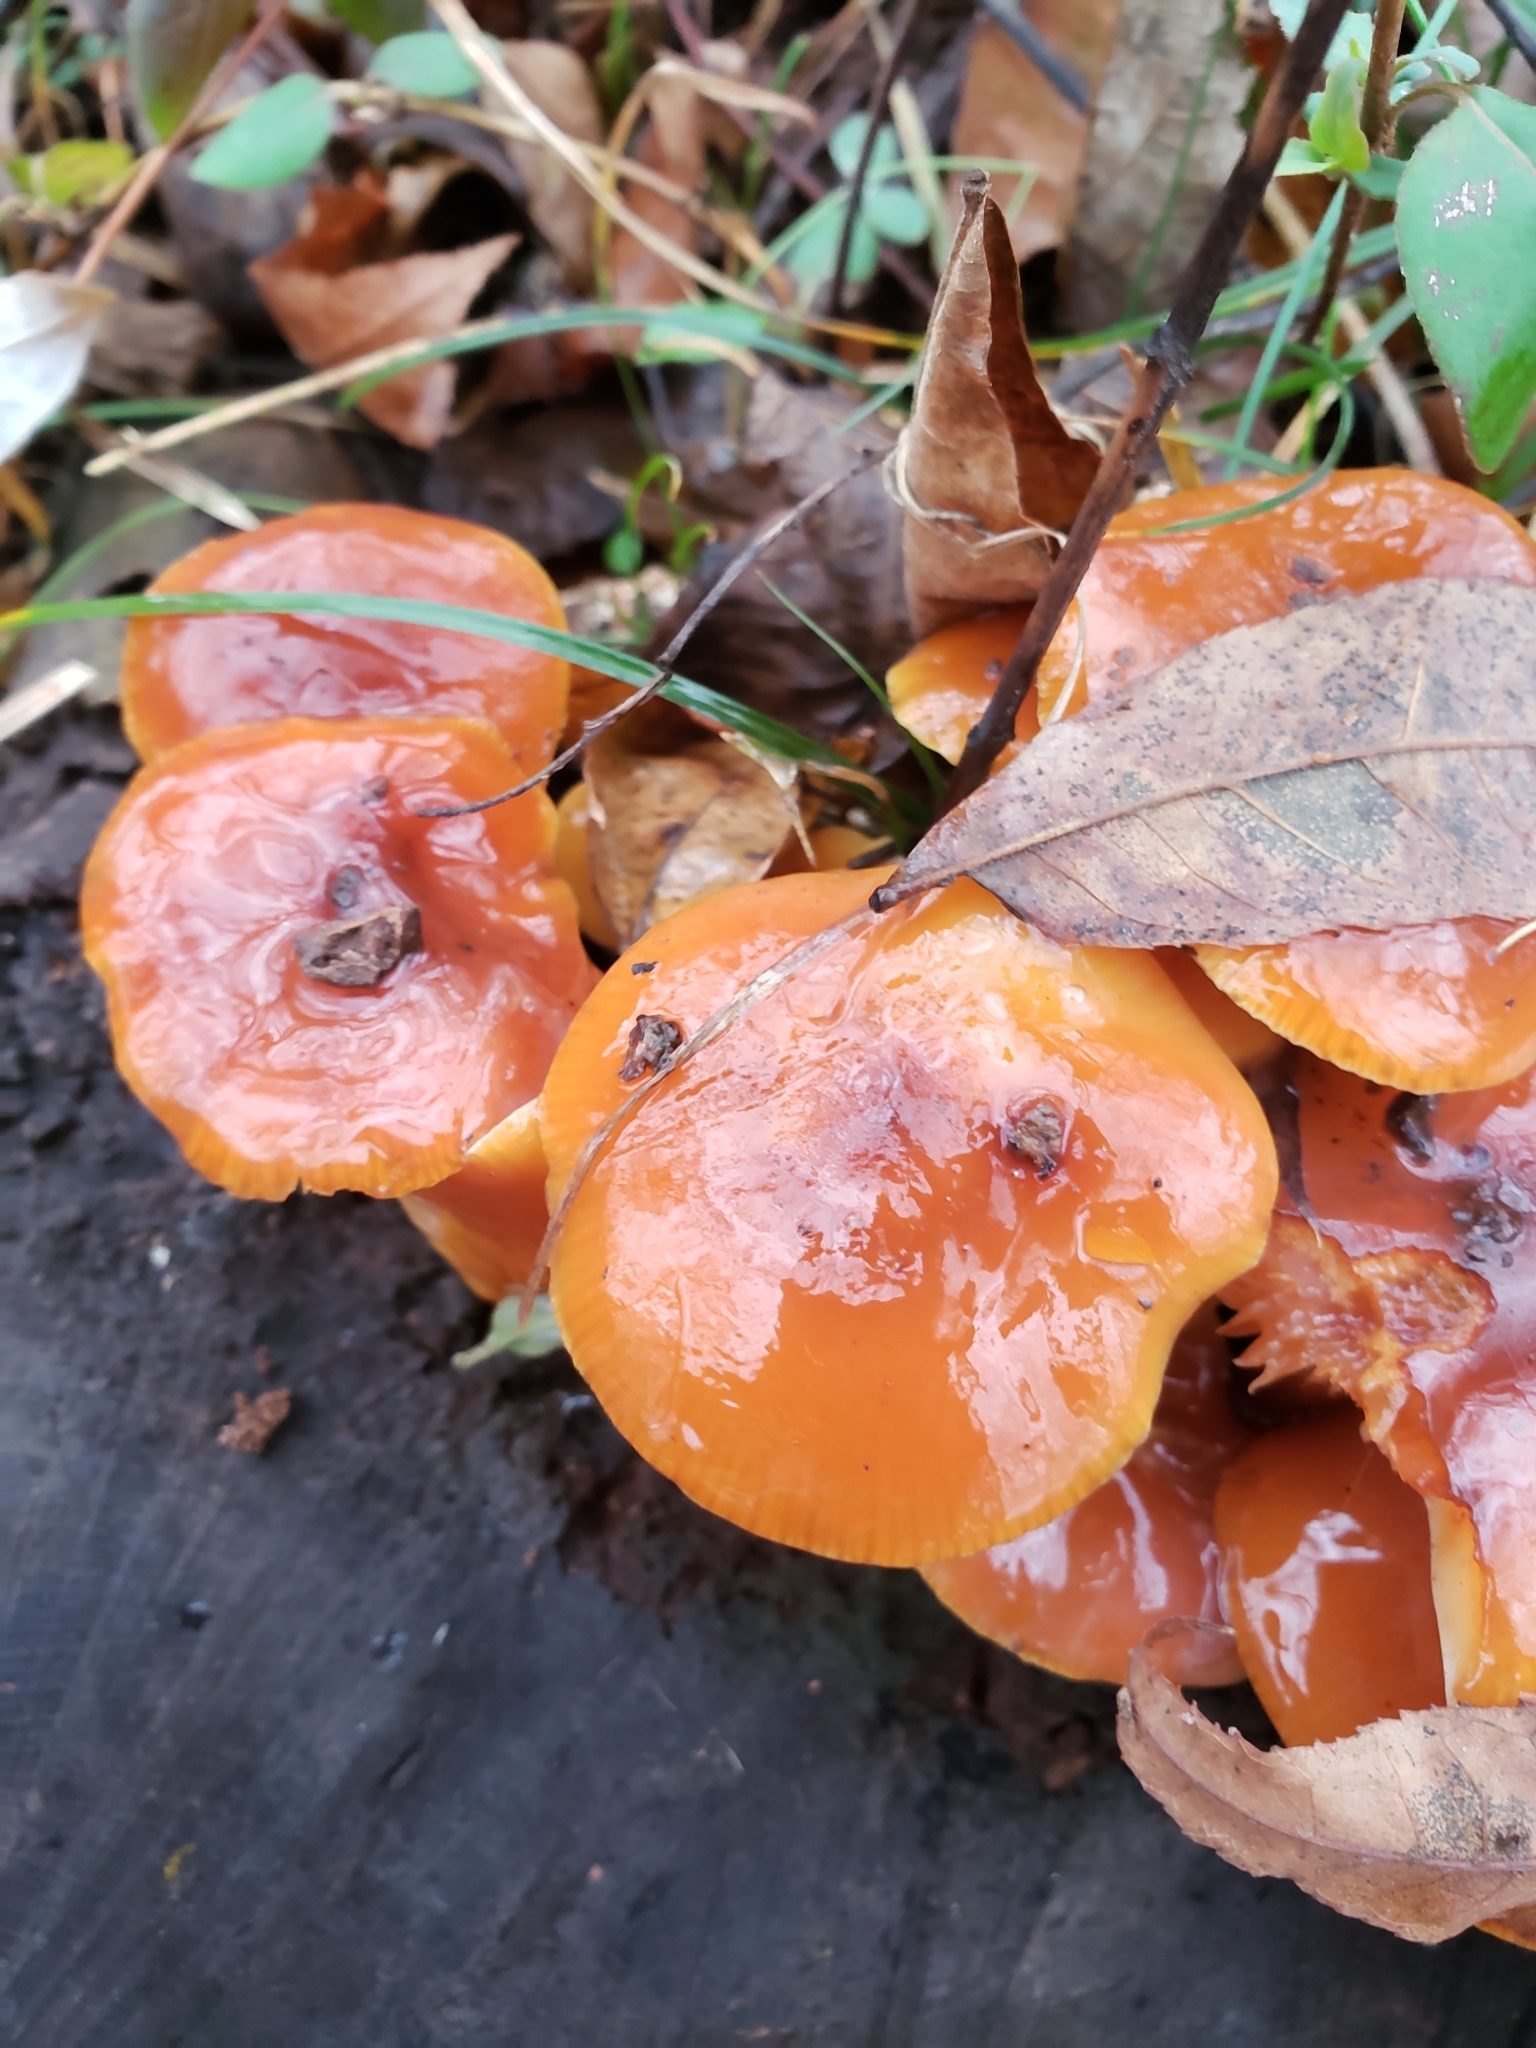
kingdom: Fungi
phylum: Basidiomycota
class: Agaricomycetes
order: Agaricales
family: Physalacriaceae
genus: Flammulina
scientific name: Flammulina velutipes
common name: Velvet shank
